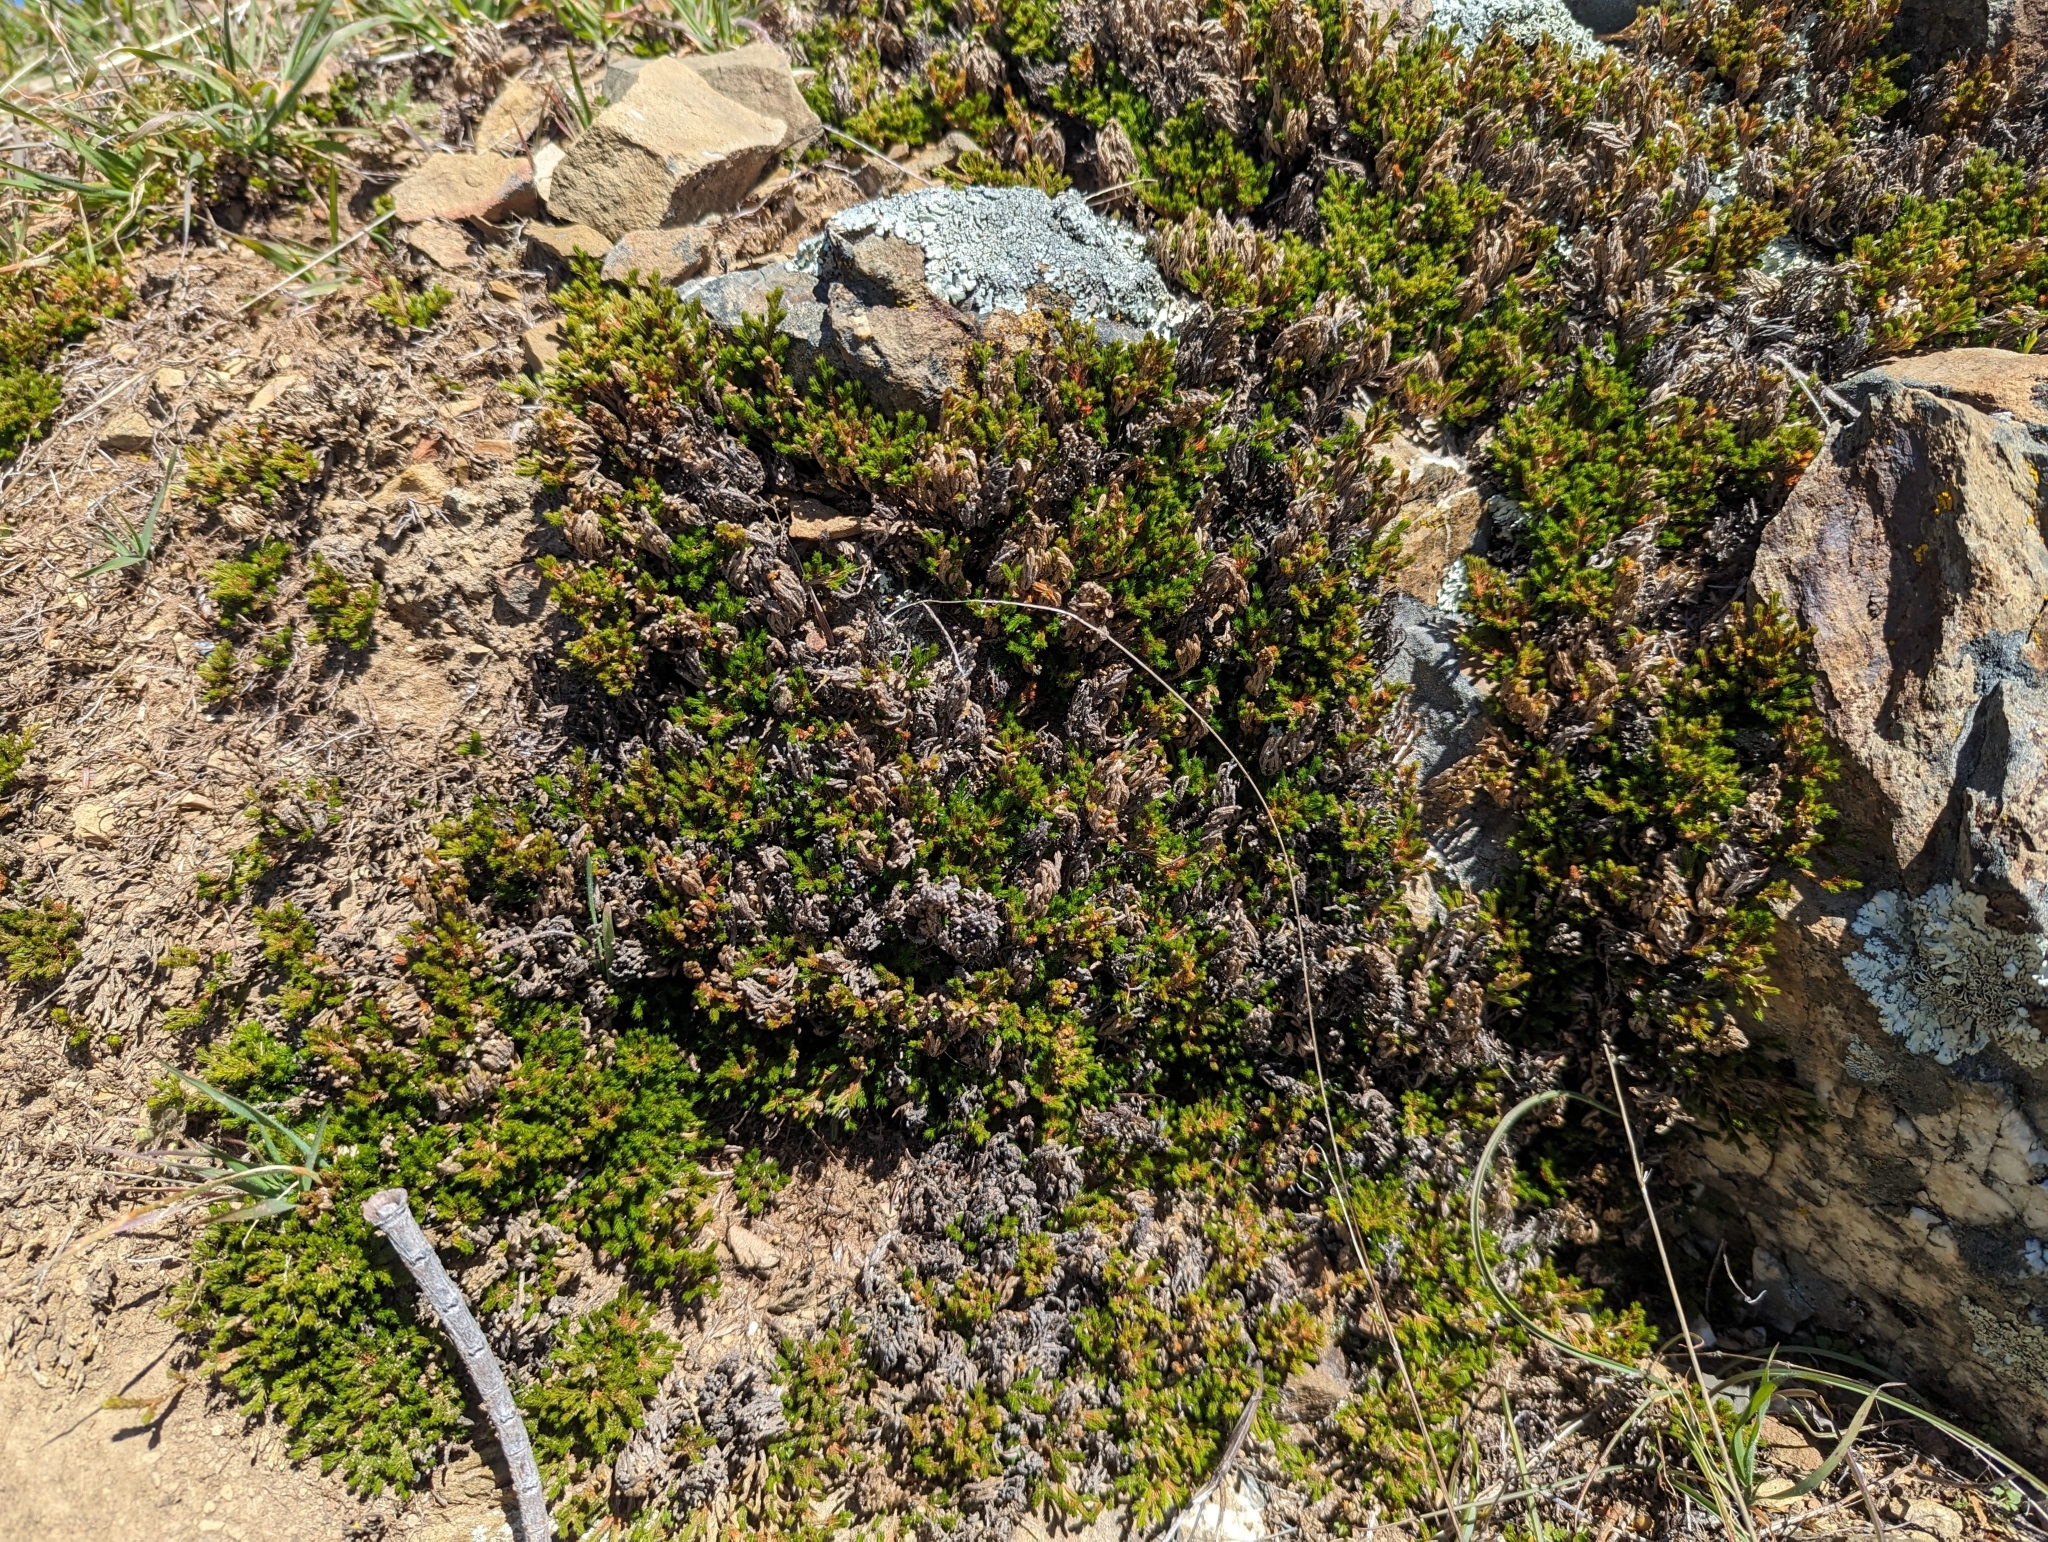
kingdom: Plantae
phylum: Tracheophyta
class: Lycopodiopsida
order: Selaginellales
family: Selaginellaceae
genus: Selaginella
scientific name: Selaginella bigelovii
